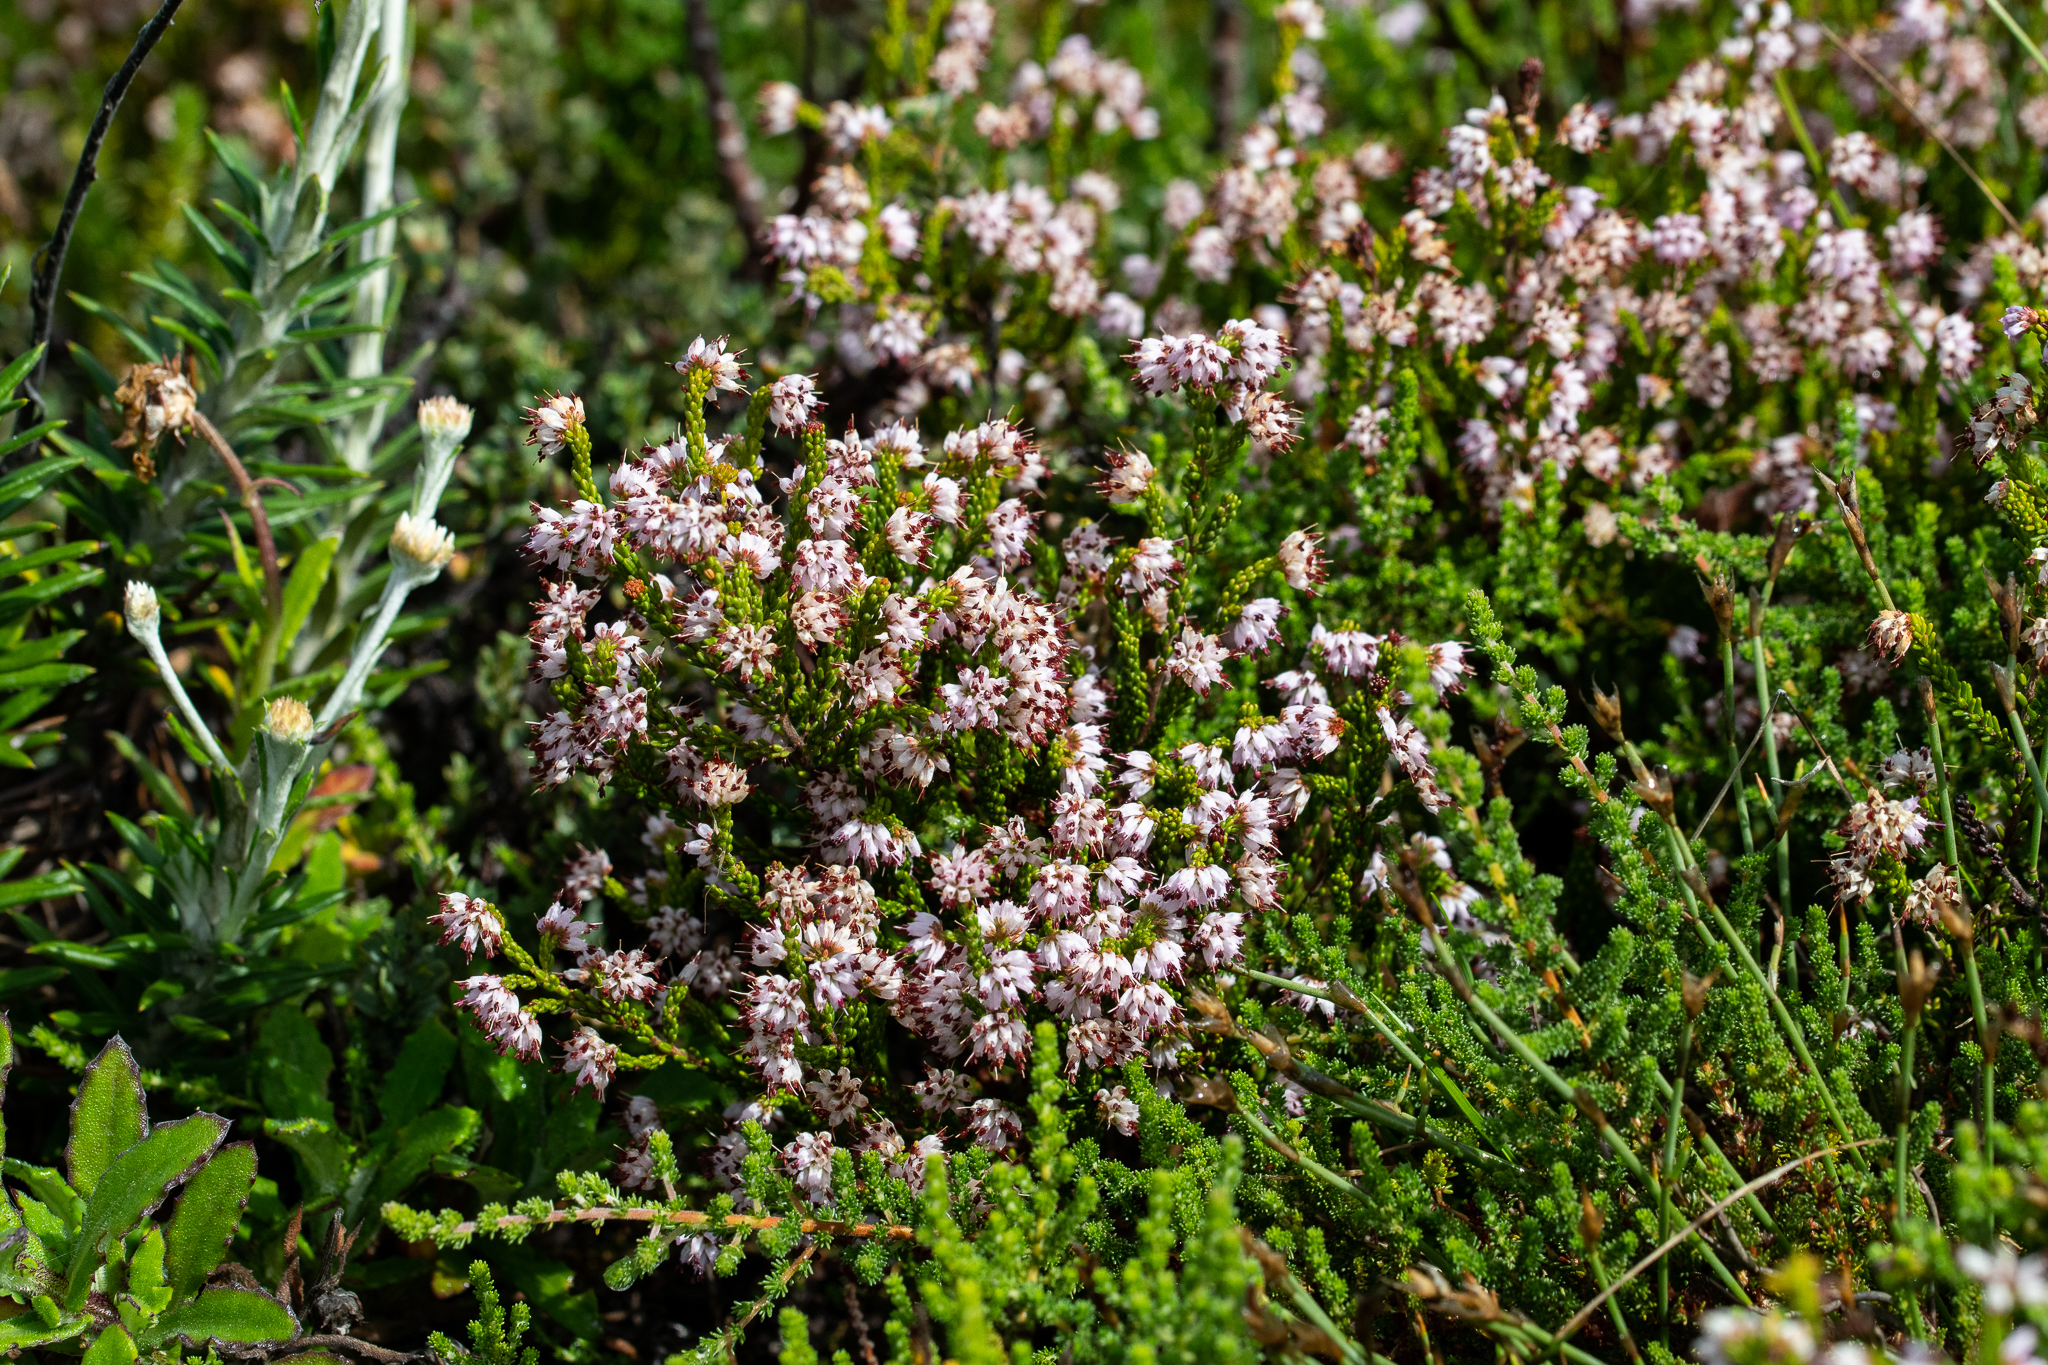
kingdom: Plantae
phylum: Tracheophyta
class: Magnoliopsida
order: Ericales
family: Ericaceae
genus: Erica
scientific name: Erica ericoides
